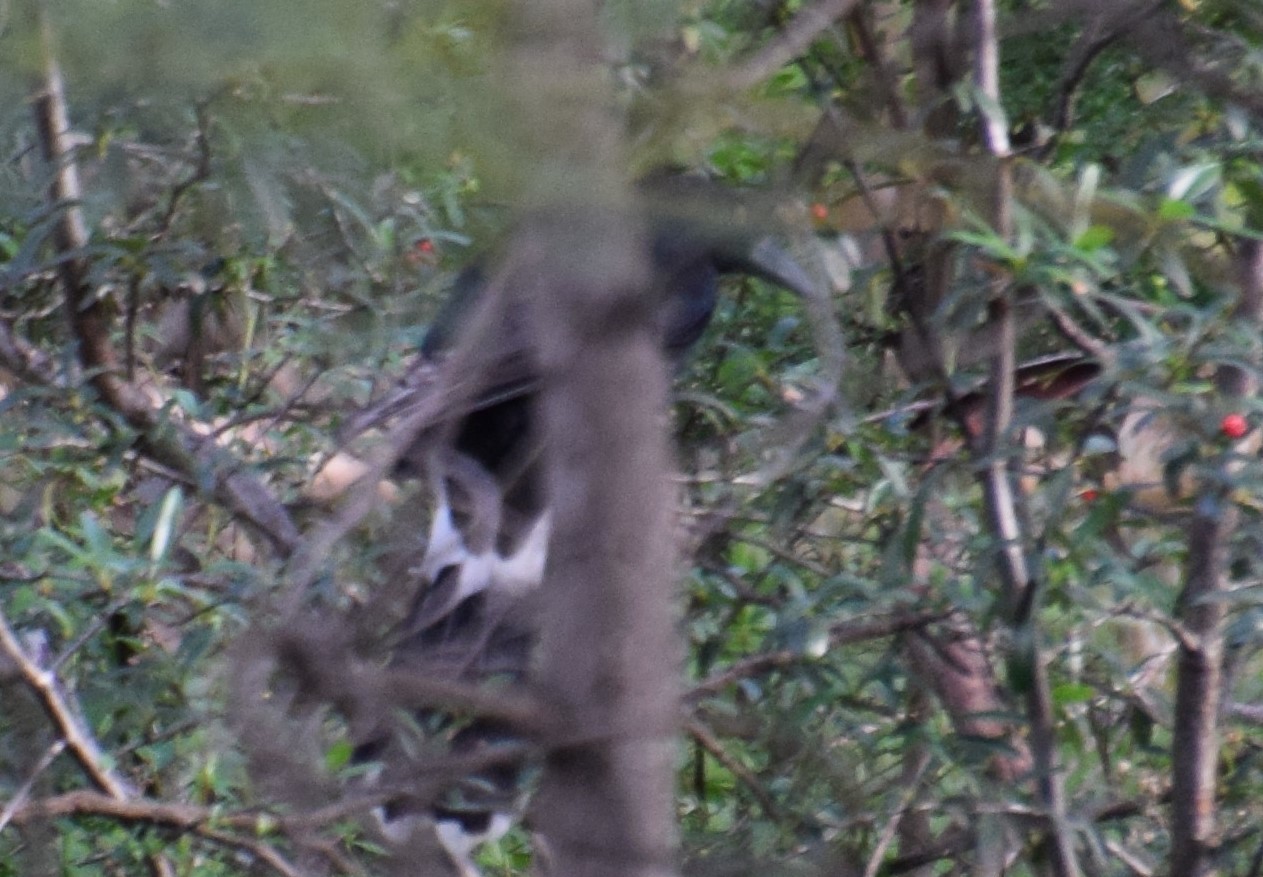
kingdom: Animalia
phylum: Chordata
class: Aves
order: Passeriformes
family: Cracticidae
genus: Strepera
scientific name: Strepera graculina
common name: Pied currawong
